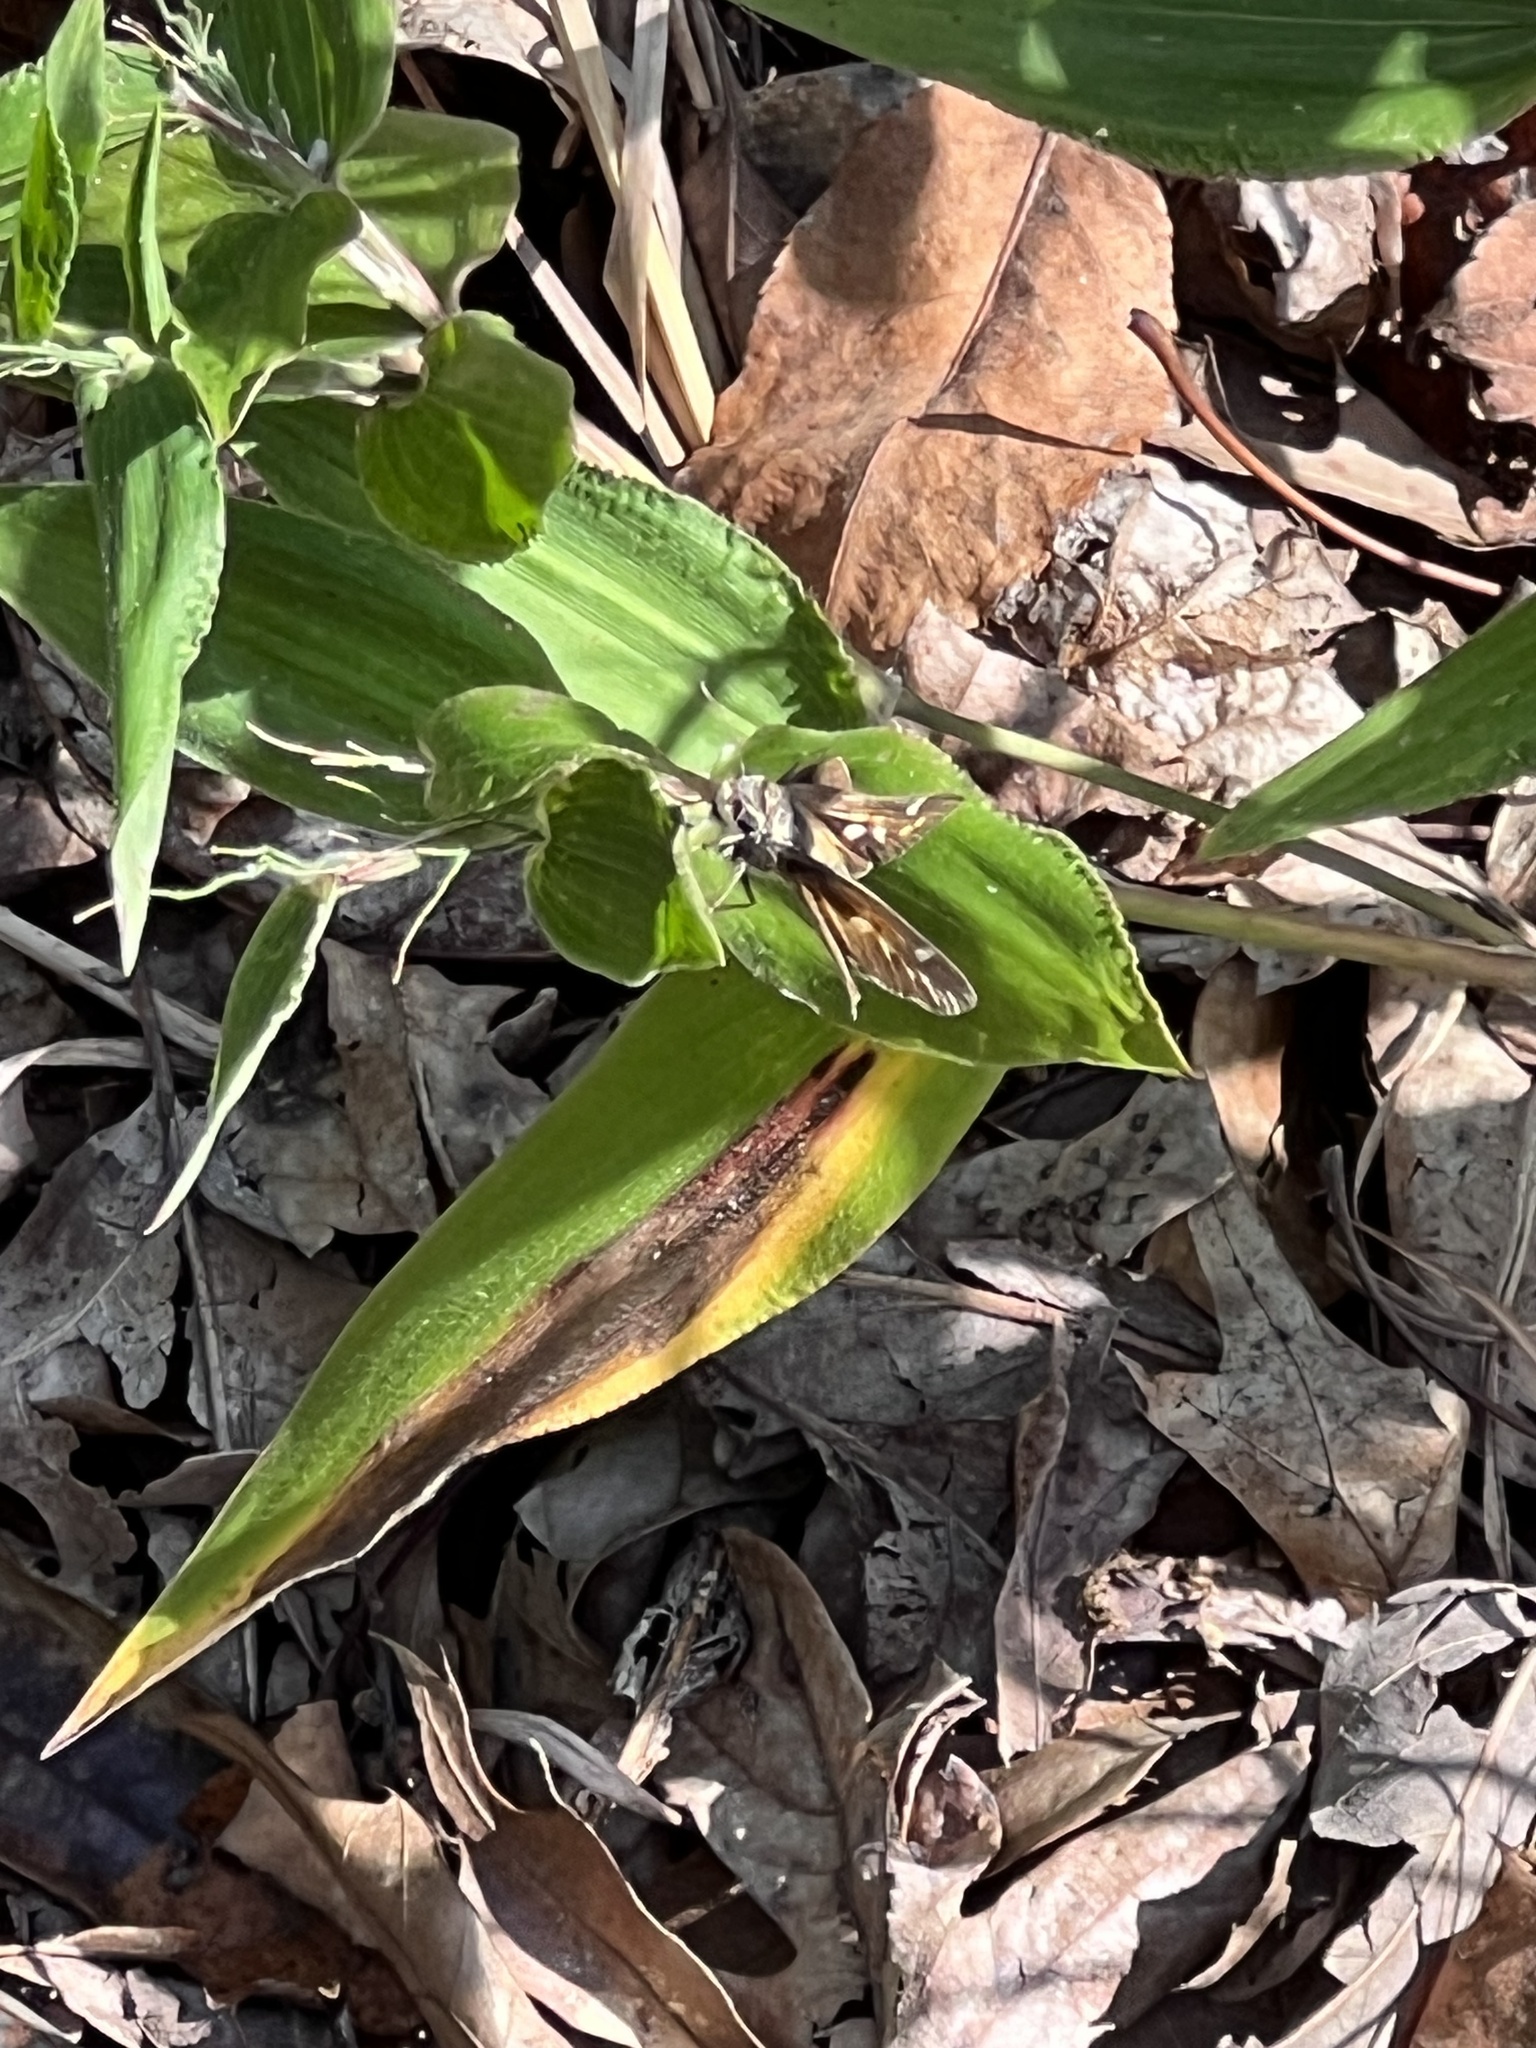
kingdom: Animalia
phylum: Arthropoda
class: Insecta
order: Lepidoptera
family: Hesperiidae
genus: Atalopedes
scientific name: Atalopedes
